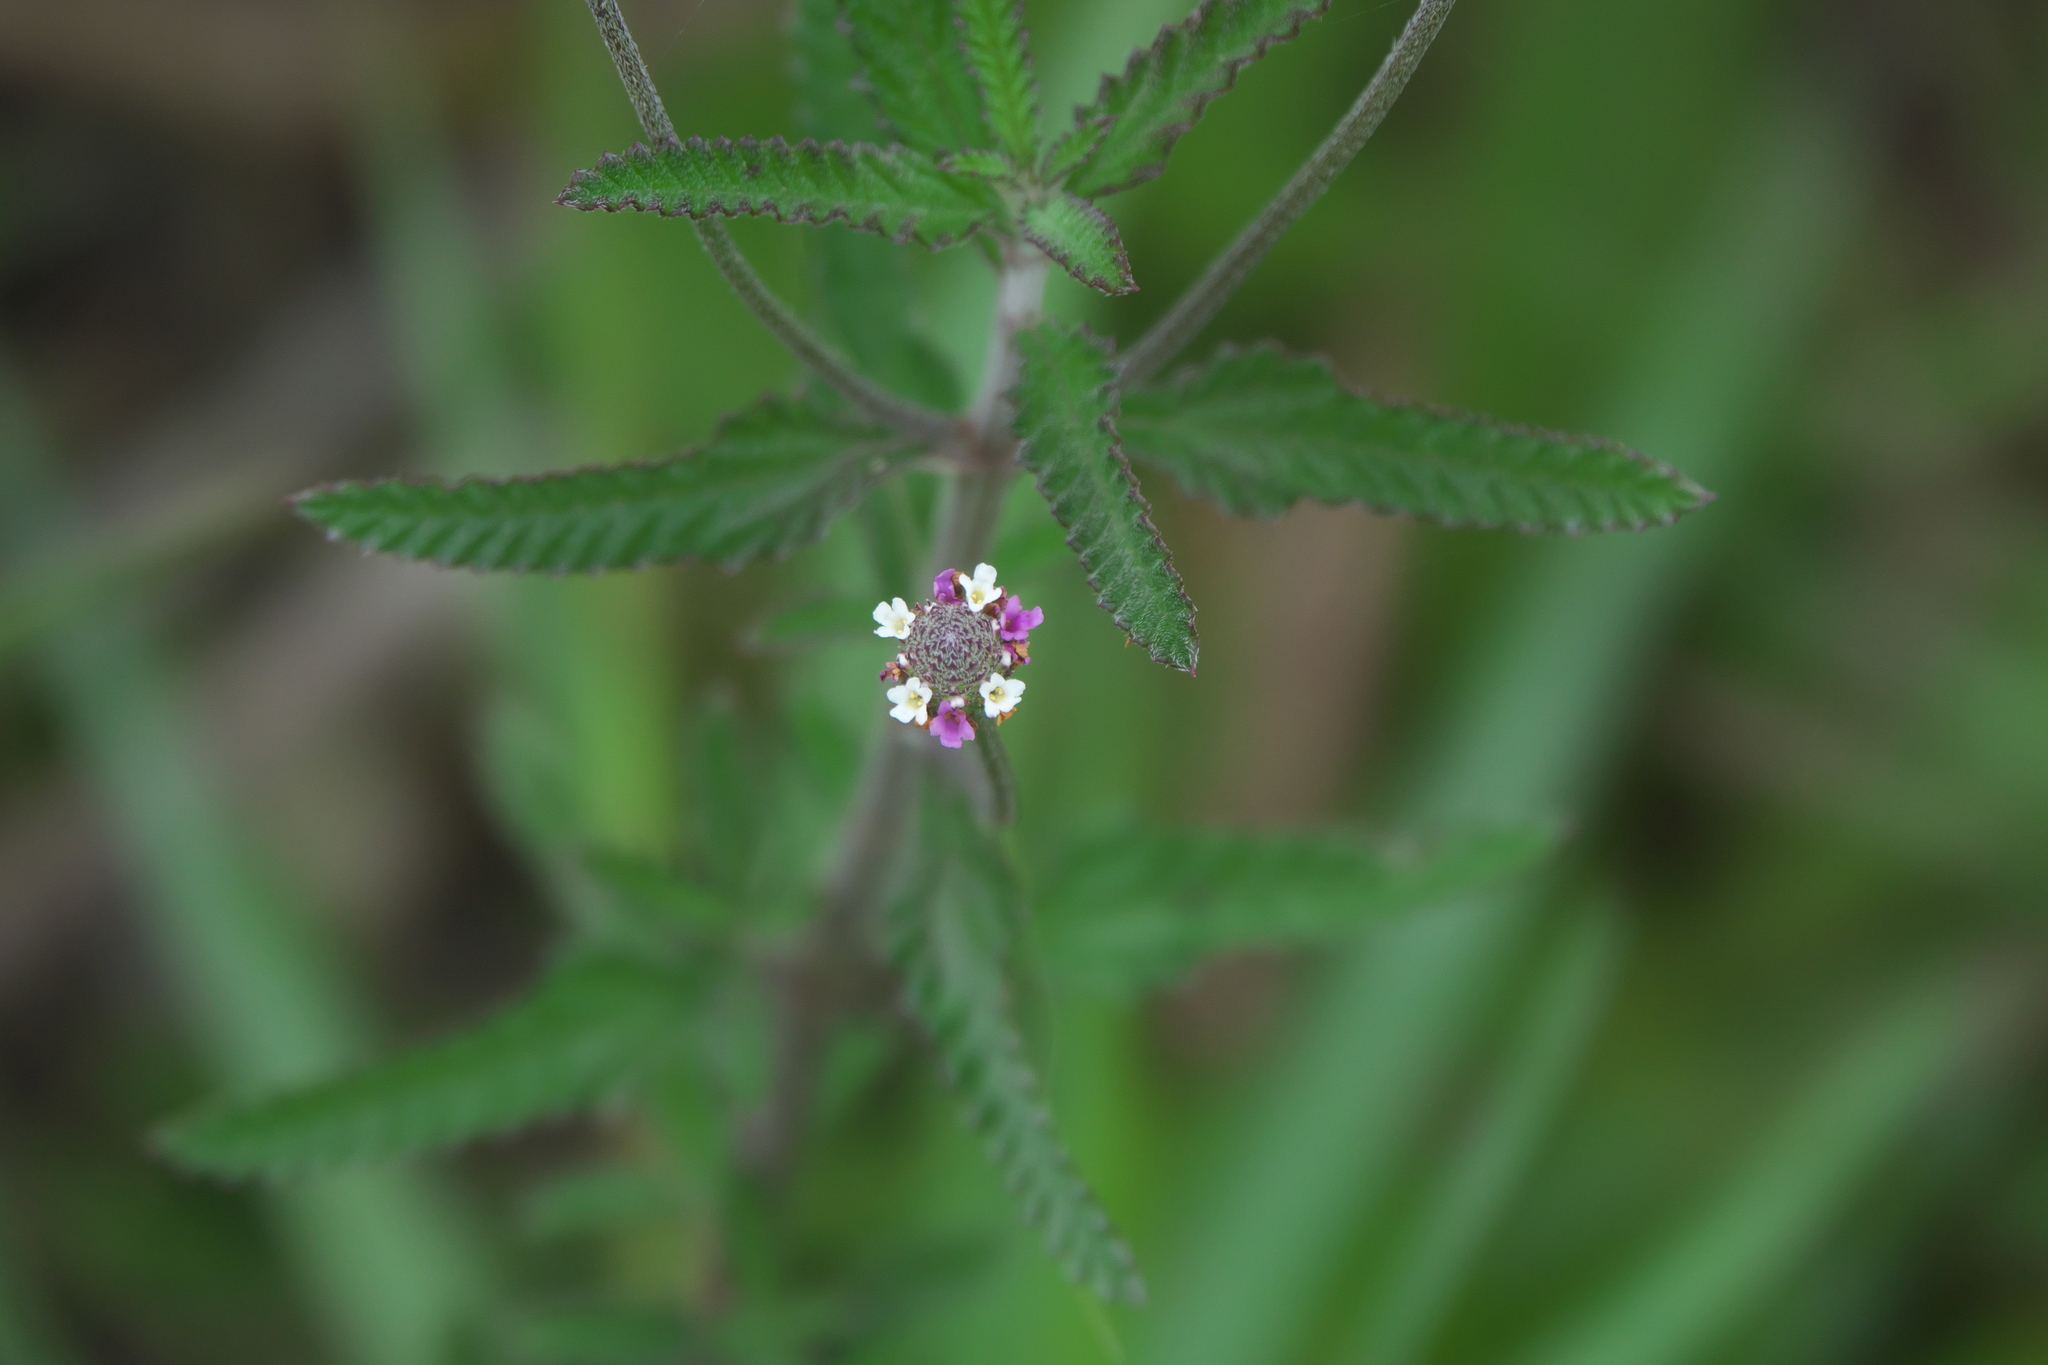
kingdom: Plantae
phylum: Tracheophyta
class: Magnoliopsida
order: Lamiales
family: Verbenaceae
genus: Lippia
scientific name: Lippia stoechadifolia
